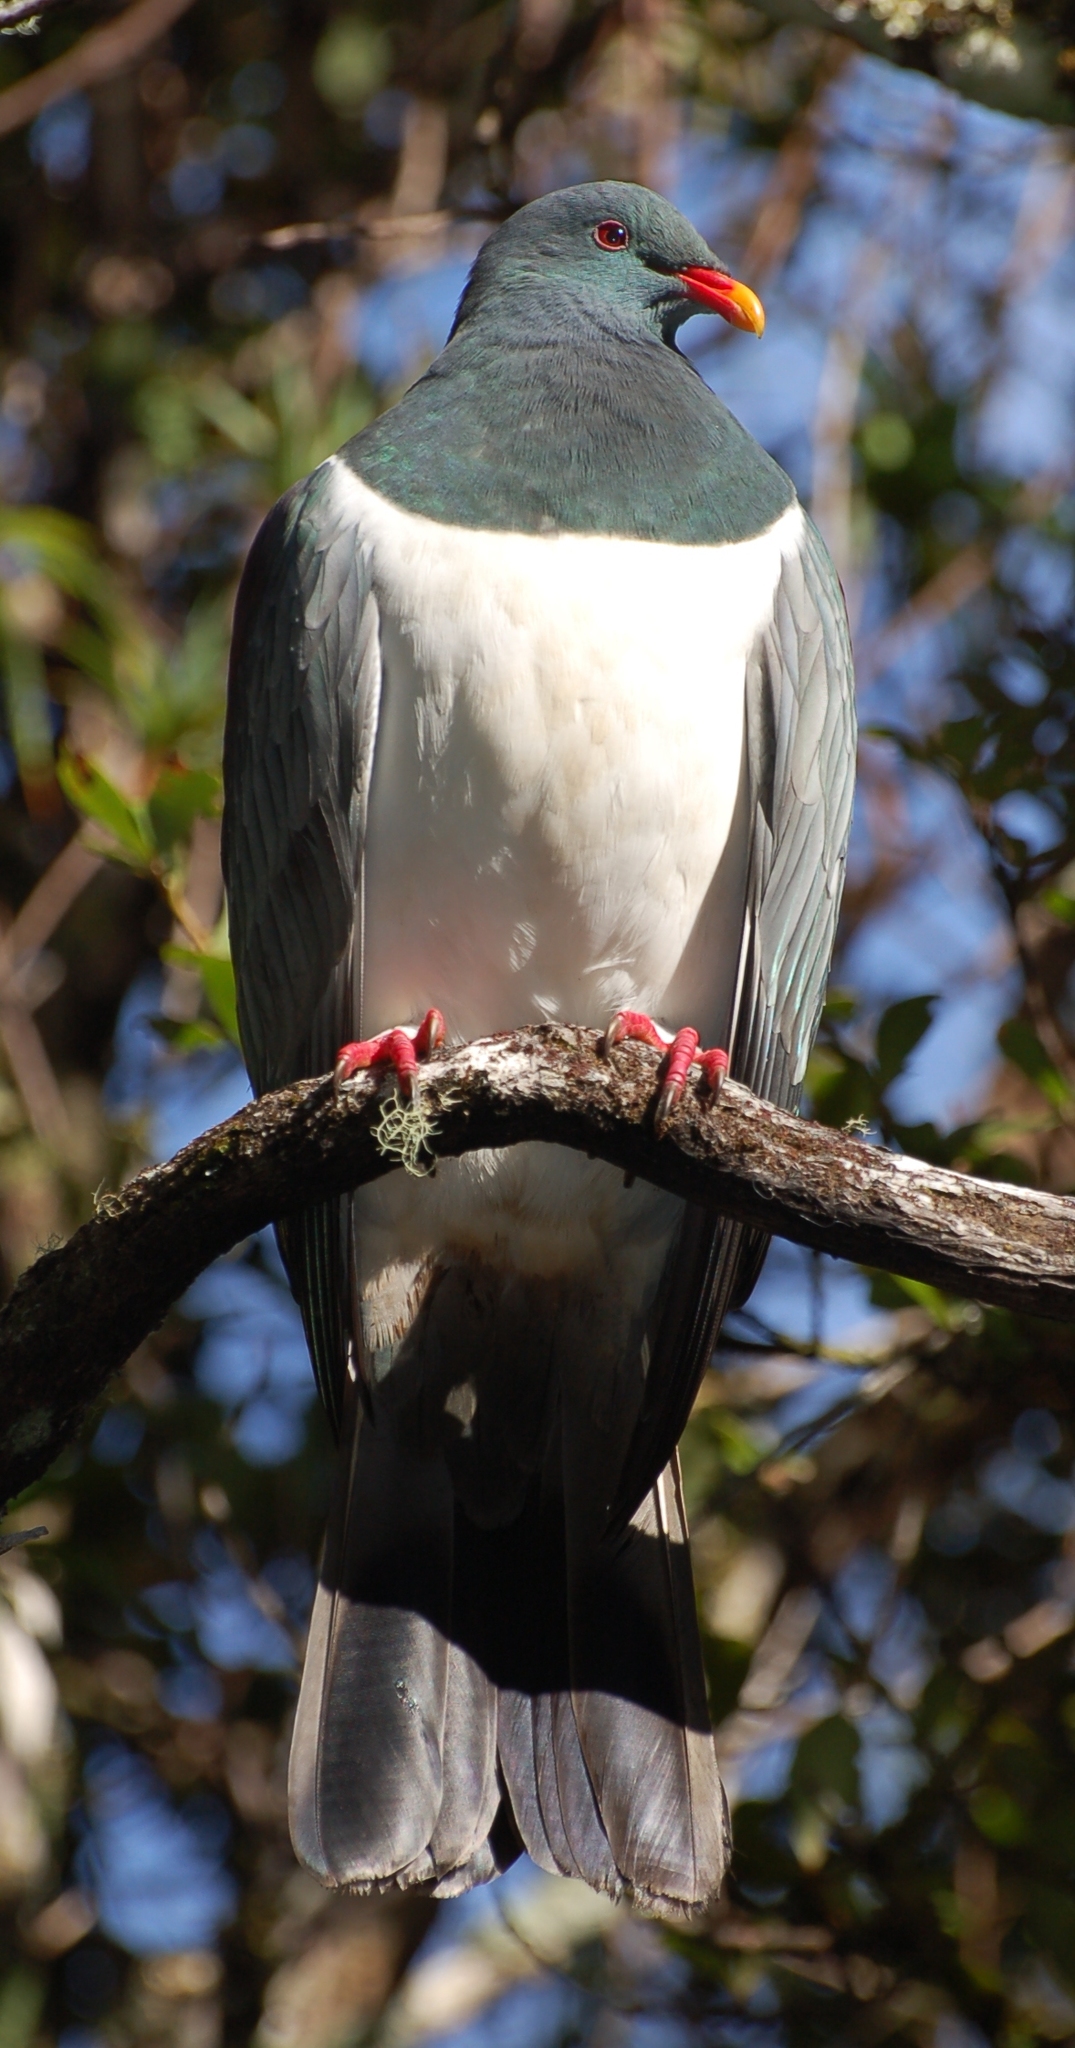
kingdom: Animalia
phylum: Chordata
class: Aves
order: Columbiformes
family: Columbidae
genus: Hemiphaga
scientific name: Hemiphaga chathamensis
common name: Chatham pigeon
